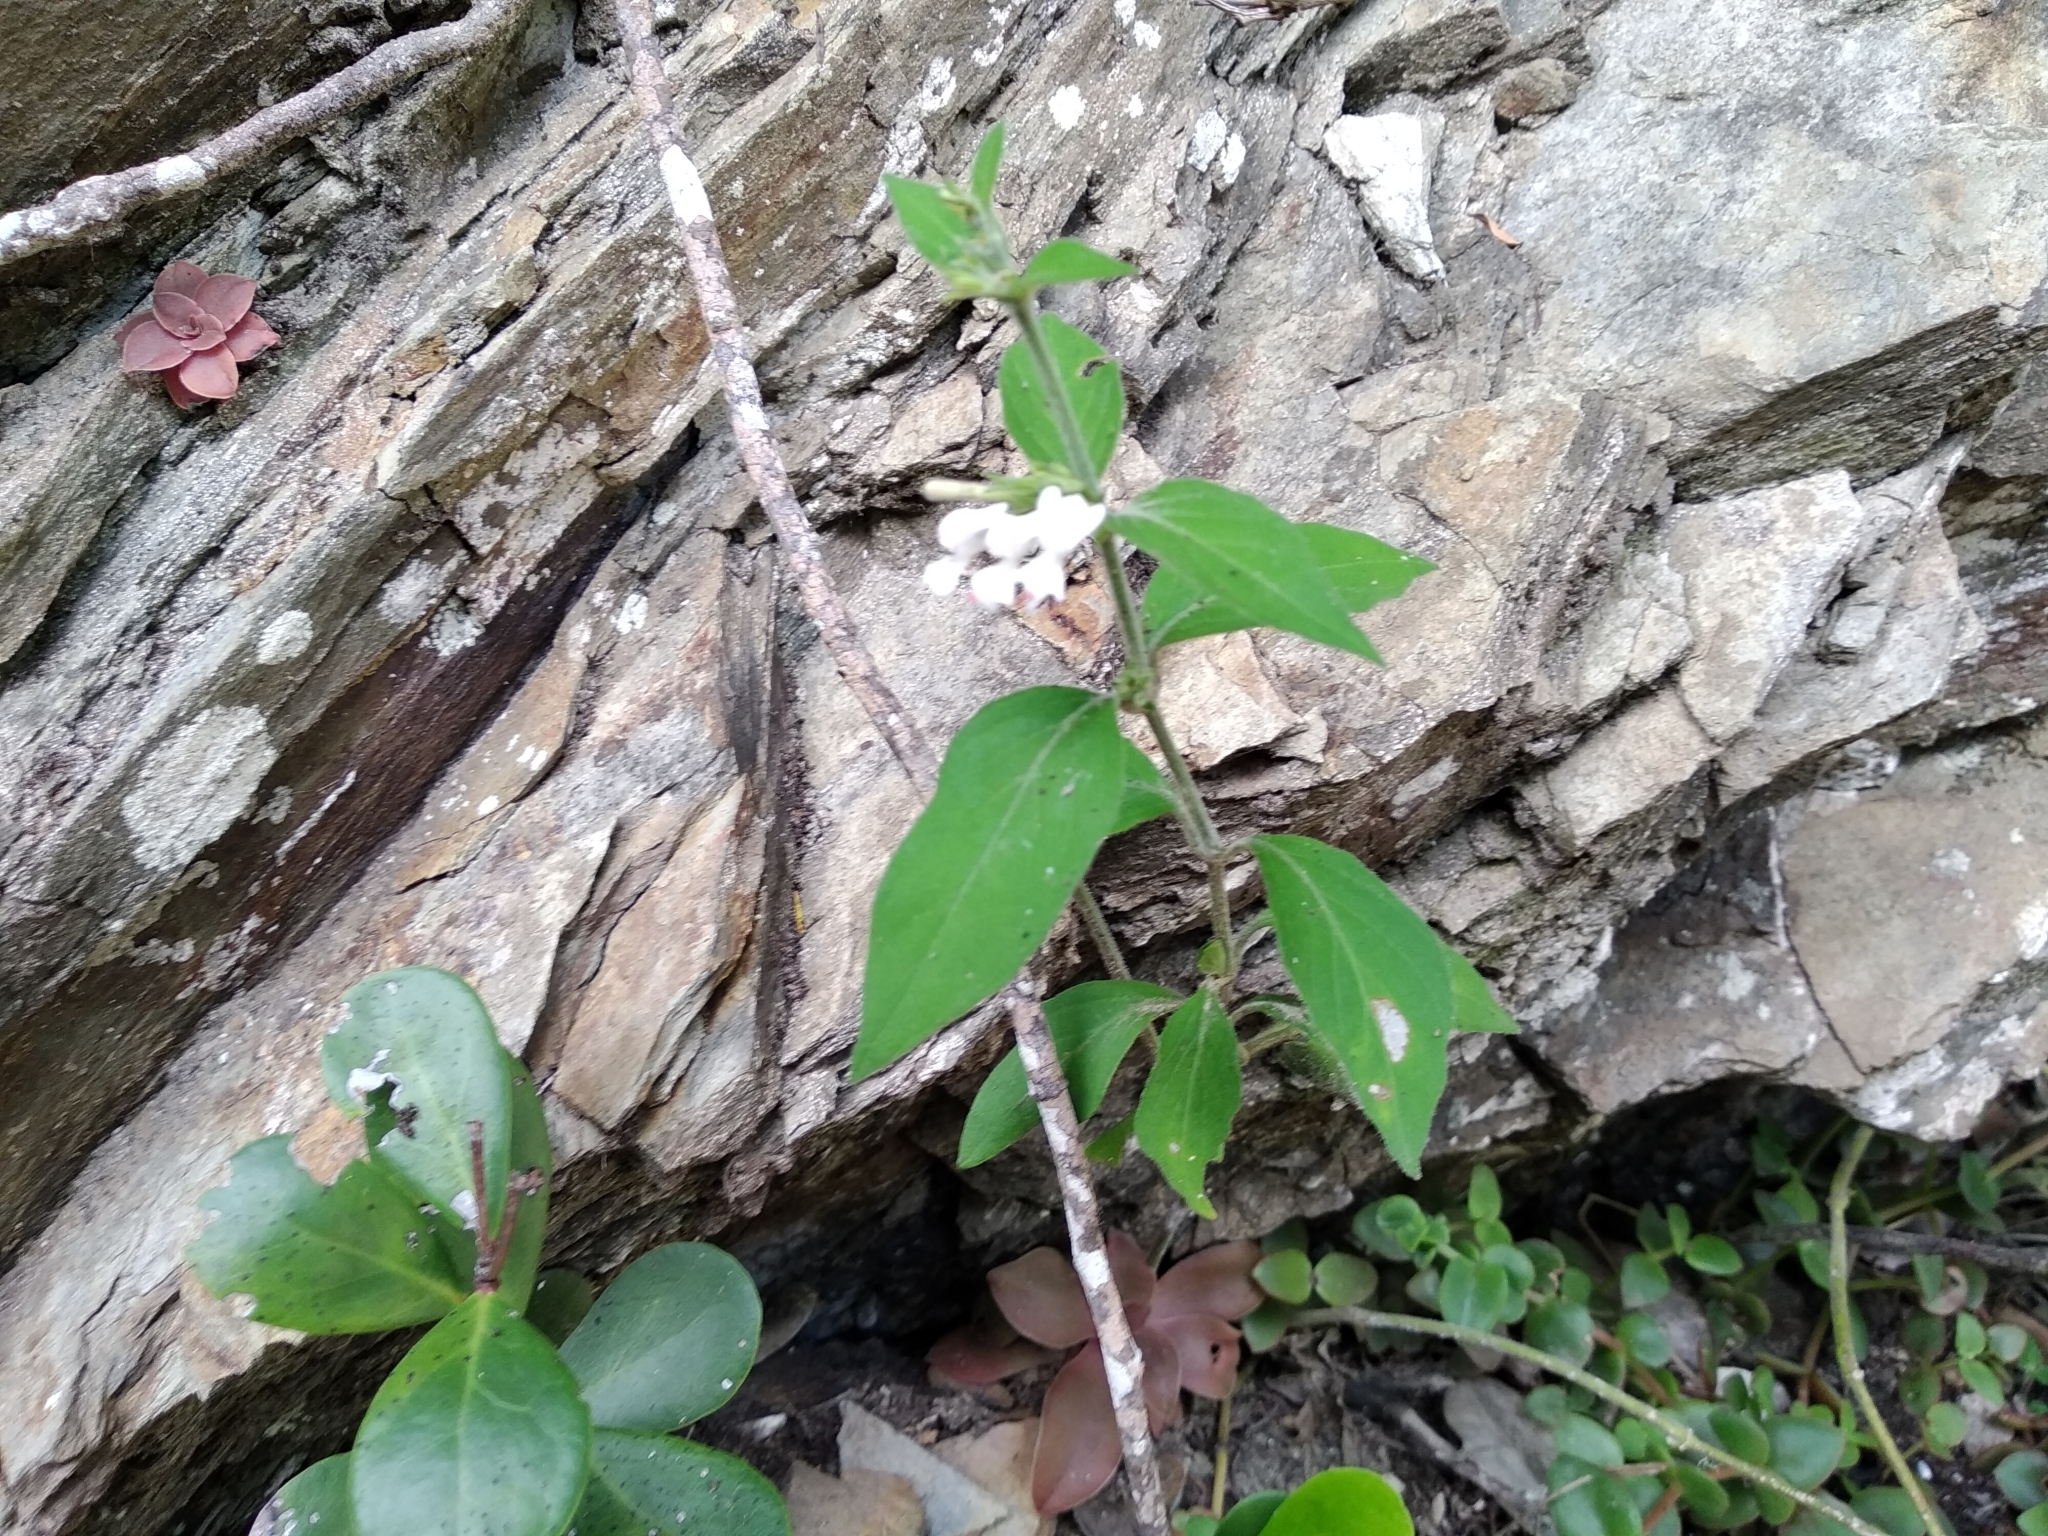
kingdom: Plantae
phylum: Tracheophyta
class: Magnoliopsida
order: Lamiales
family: Acanthaceae
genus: Hypoestes
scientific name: Hypoestes forskaolii
